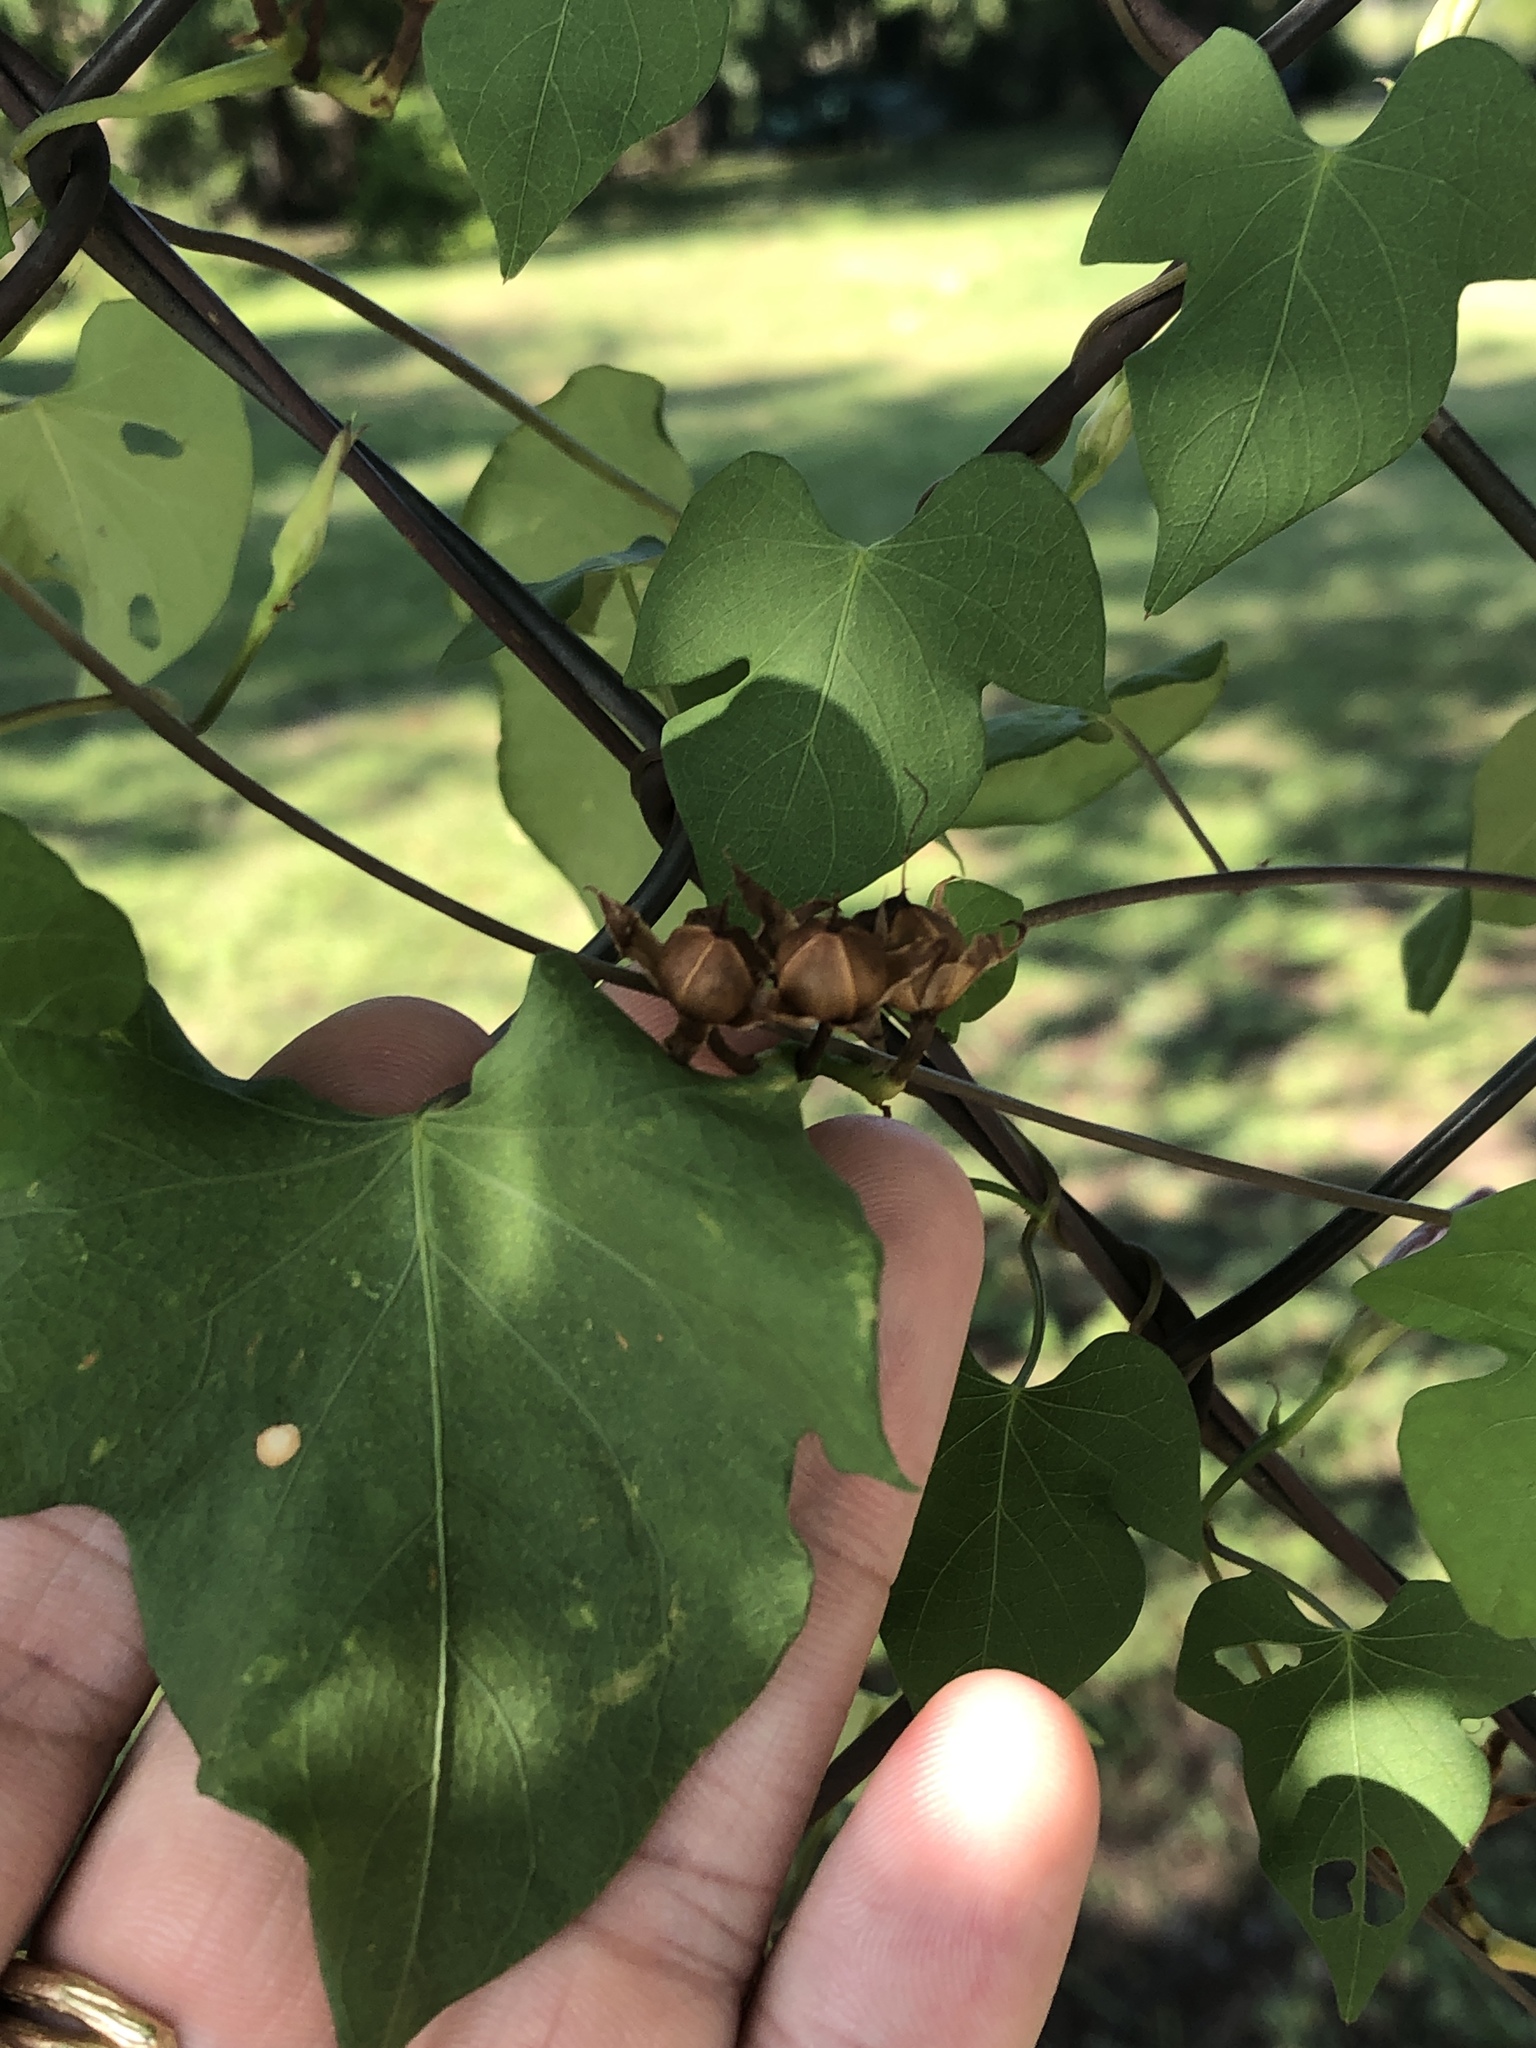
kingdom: Plantae
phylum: Tracheophyta
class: Magnoliopsida
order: Solanales
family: Convolvulaceae
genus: Ipomoea
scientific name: Ipomoea cordatotriloba
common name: Cotton morning glory
